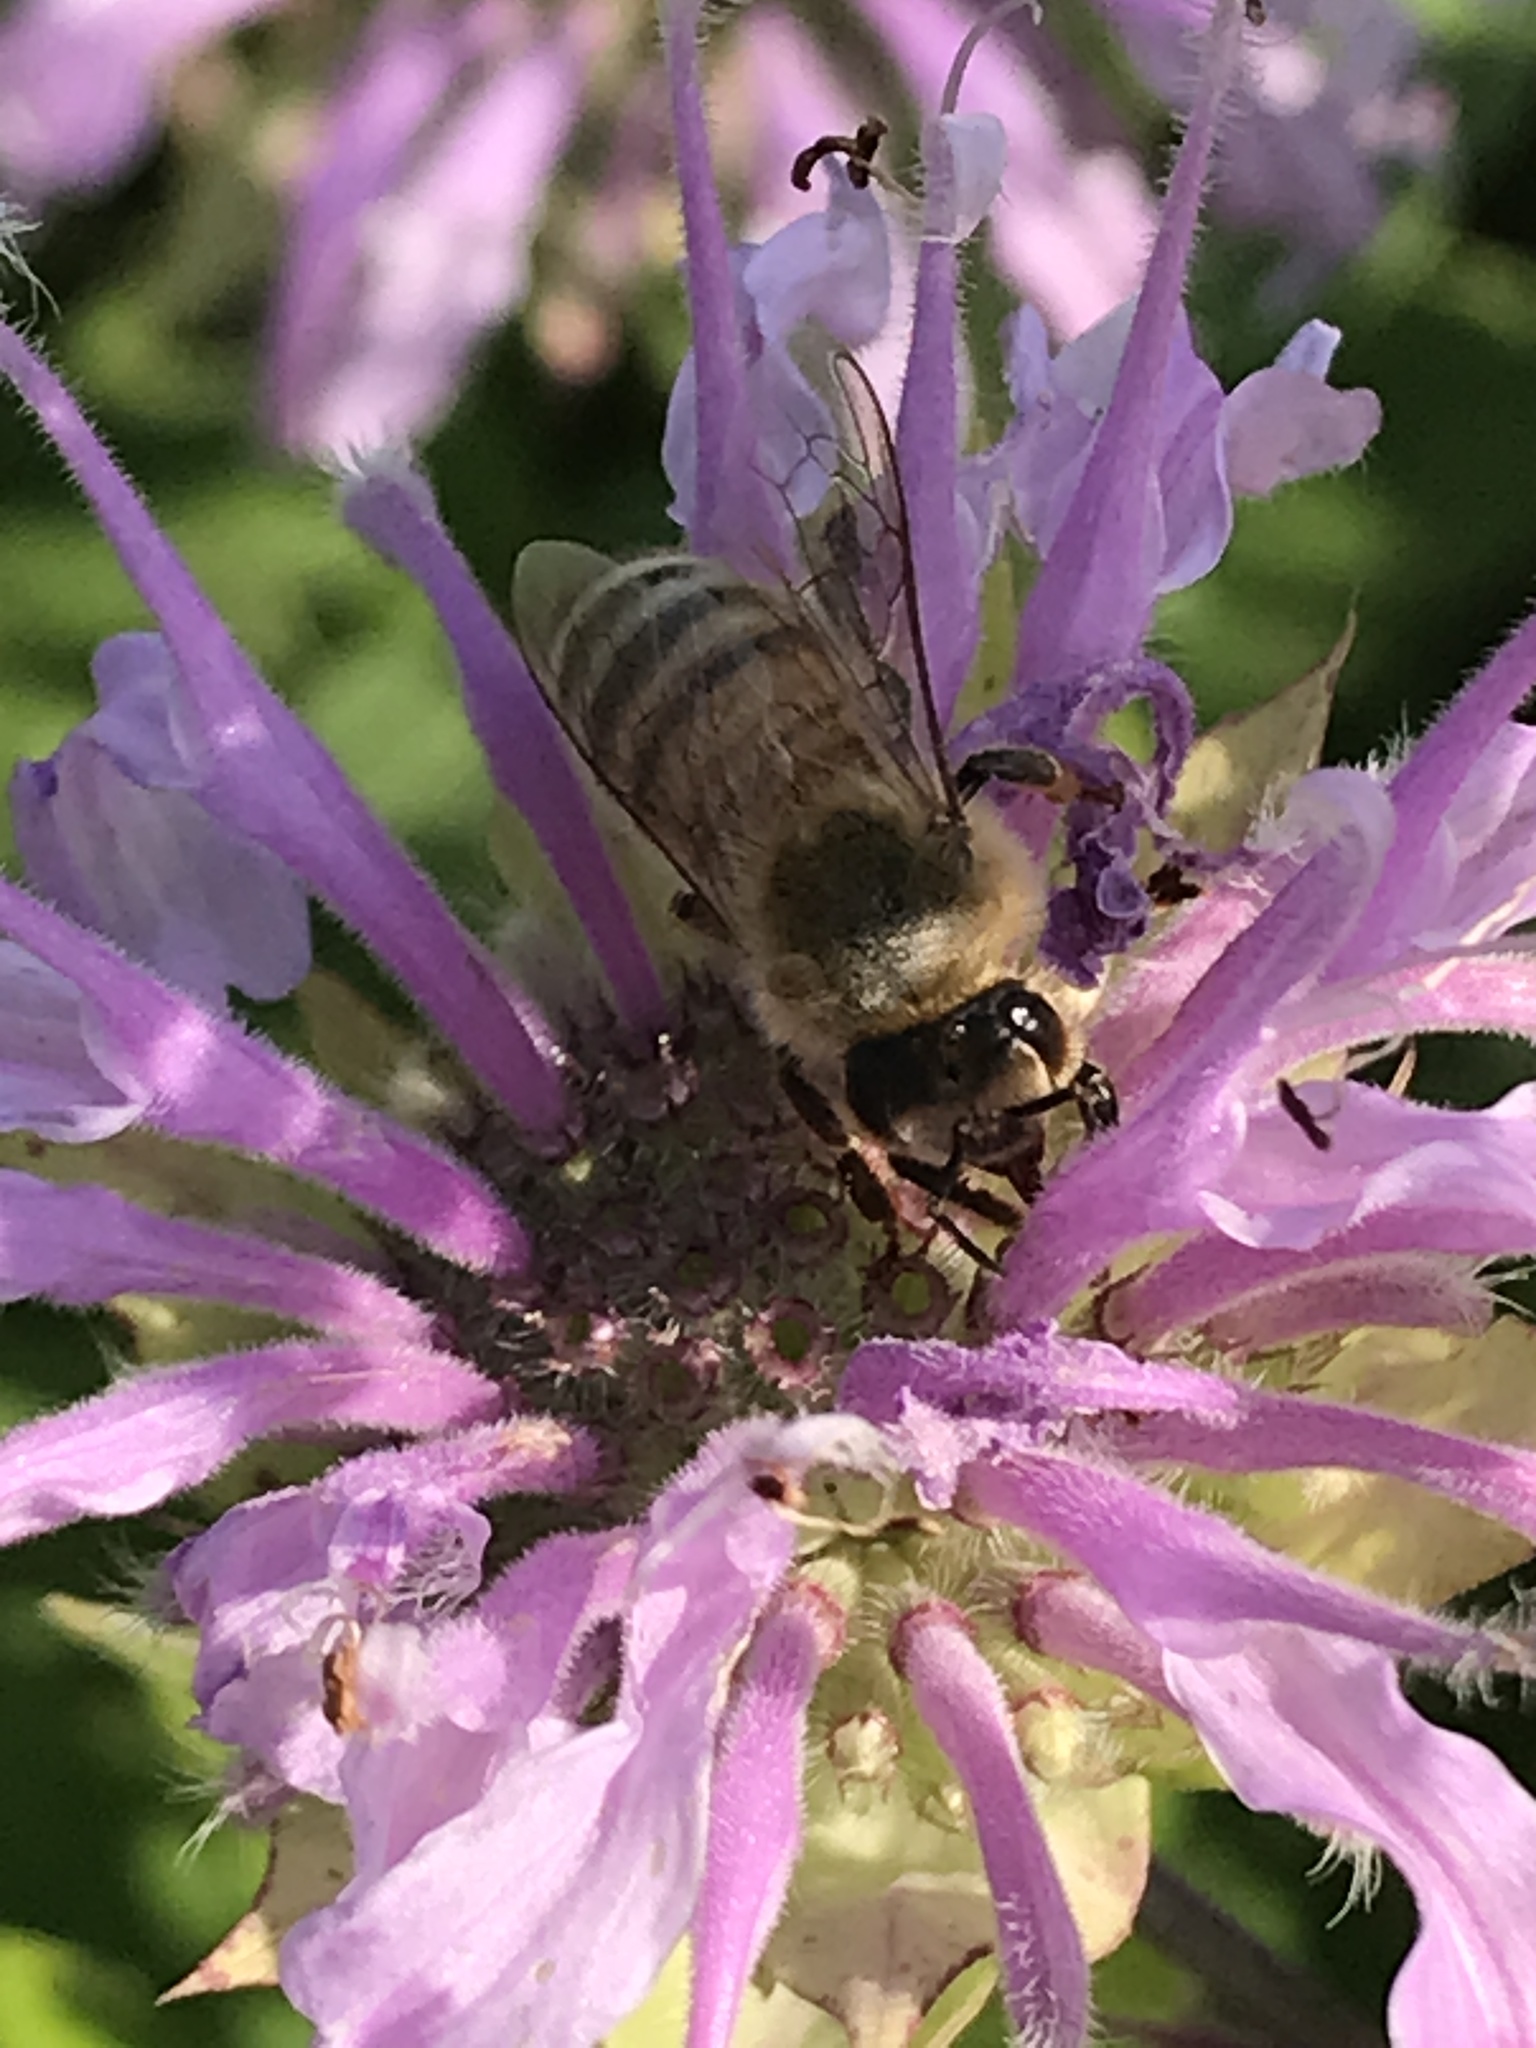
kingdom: Animalia
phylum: Arthropoda
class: Insecta
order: Hymenoptera
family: Apidae
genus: Apis
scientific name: Apis mellifera
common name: Honey bee
